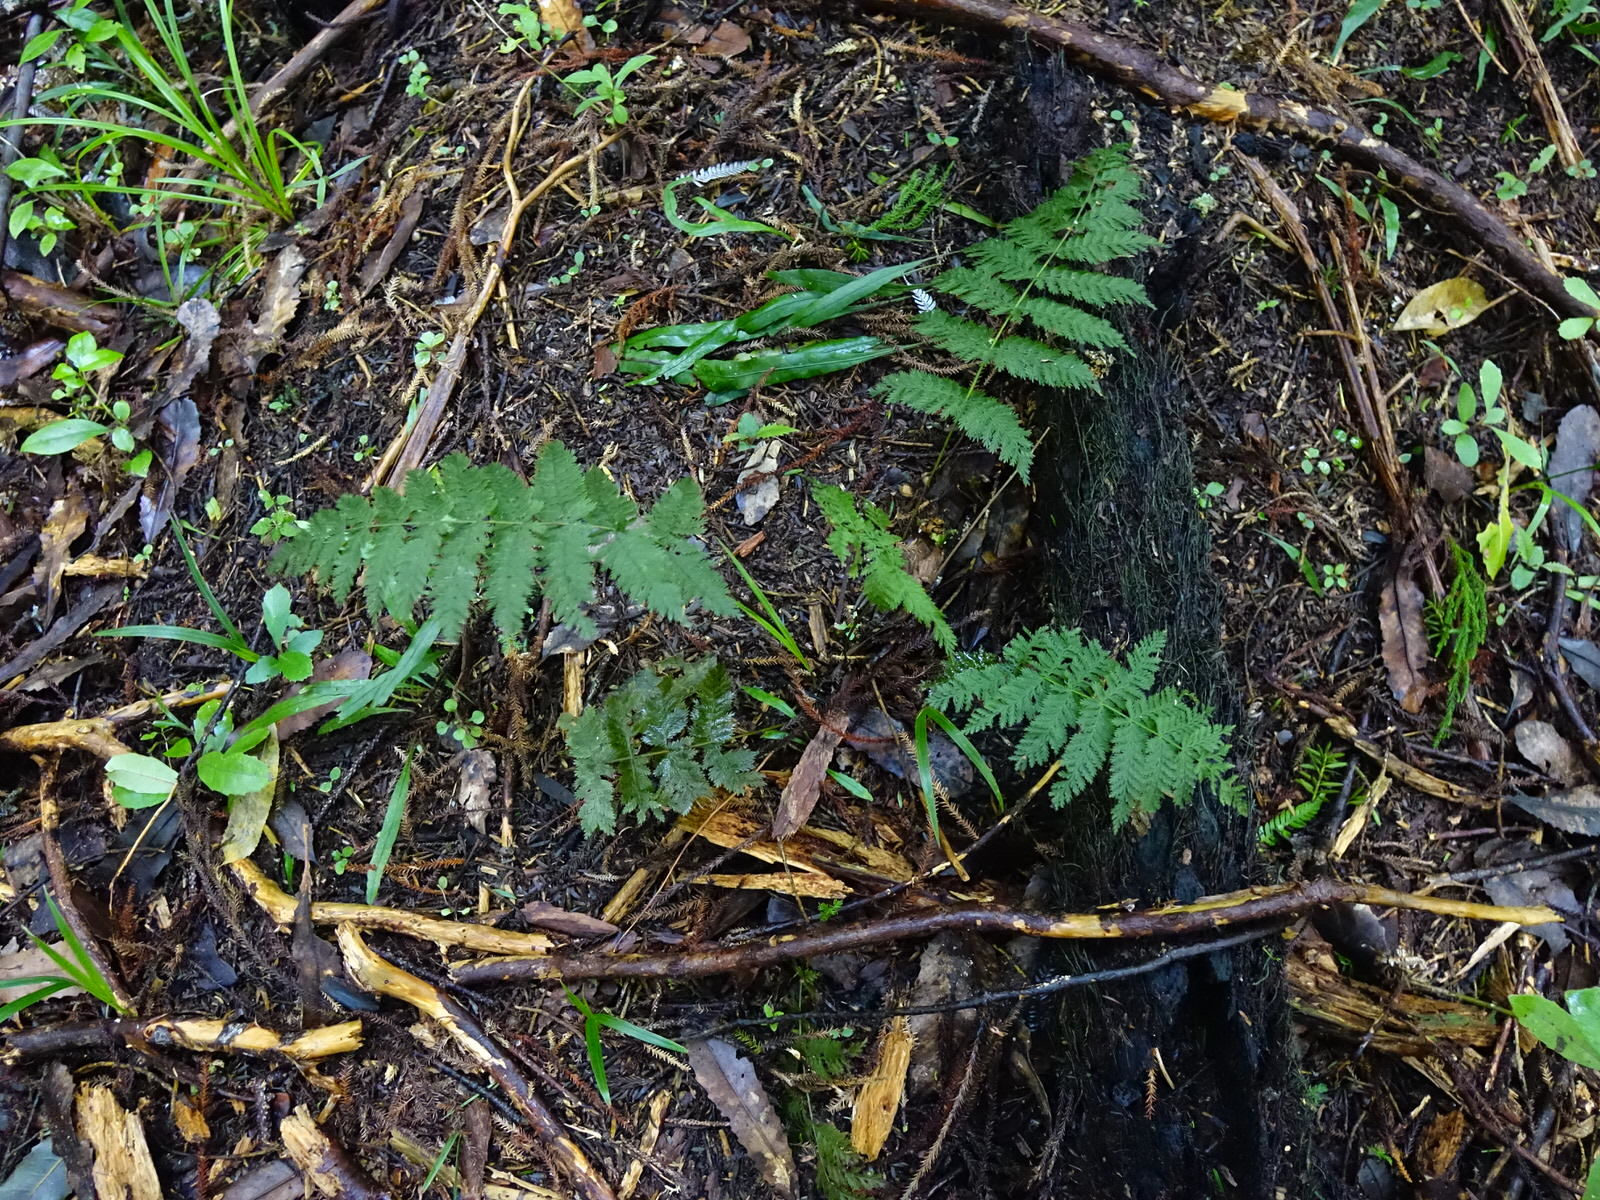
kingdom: Plantae
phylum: Tracheophyta
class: Polypodiopsida
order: Osmundales
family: Osmundaceae
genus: Leptopteris
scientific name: Leptopteris hymenophylloides
